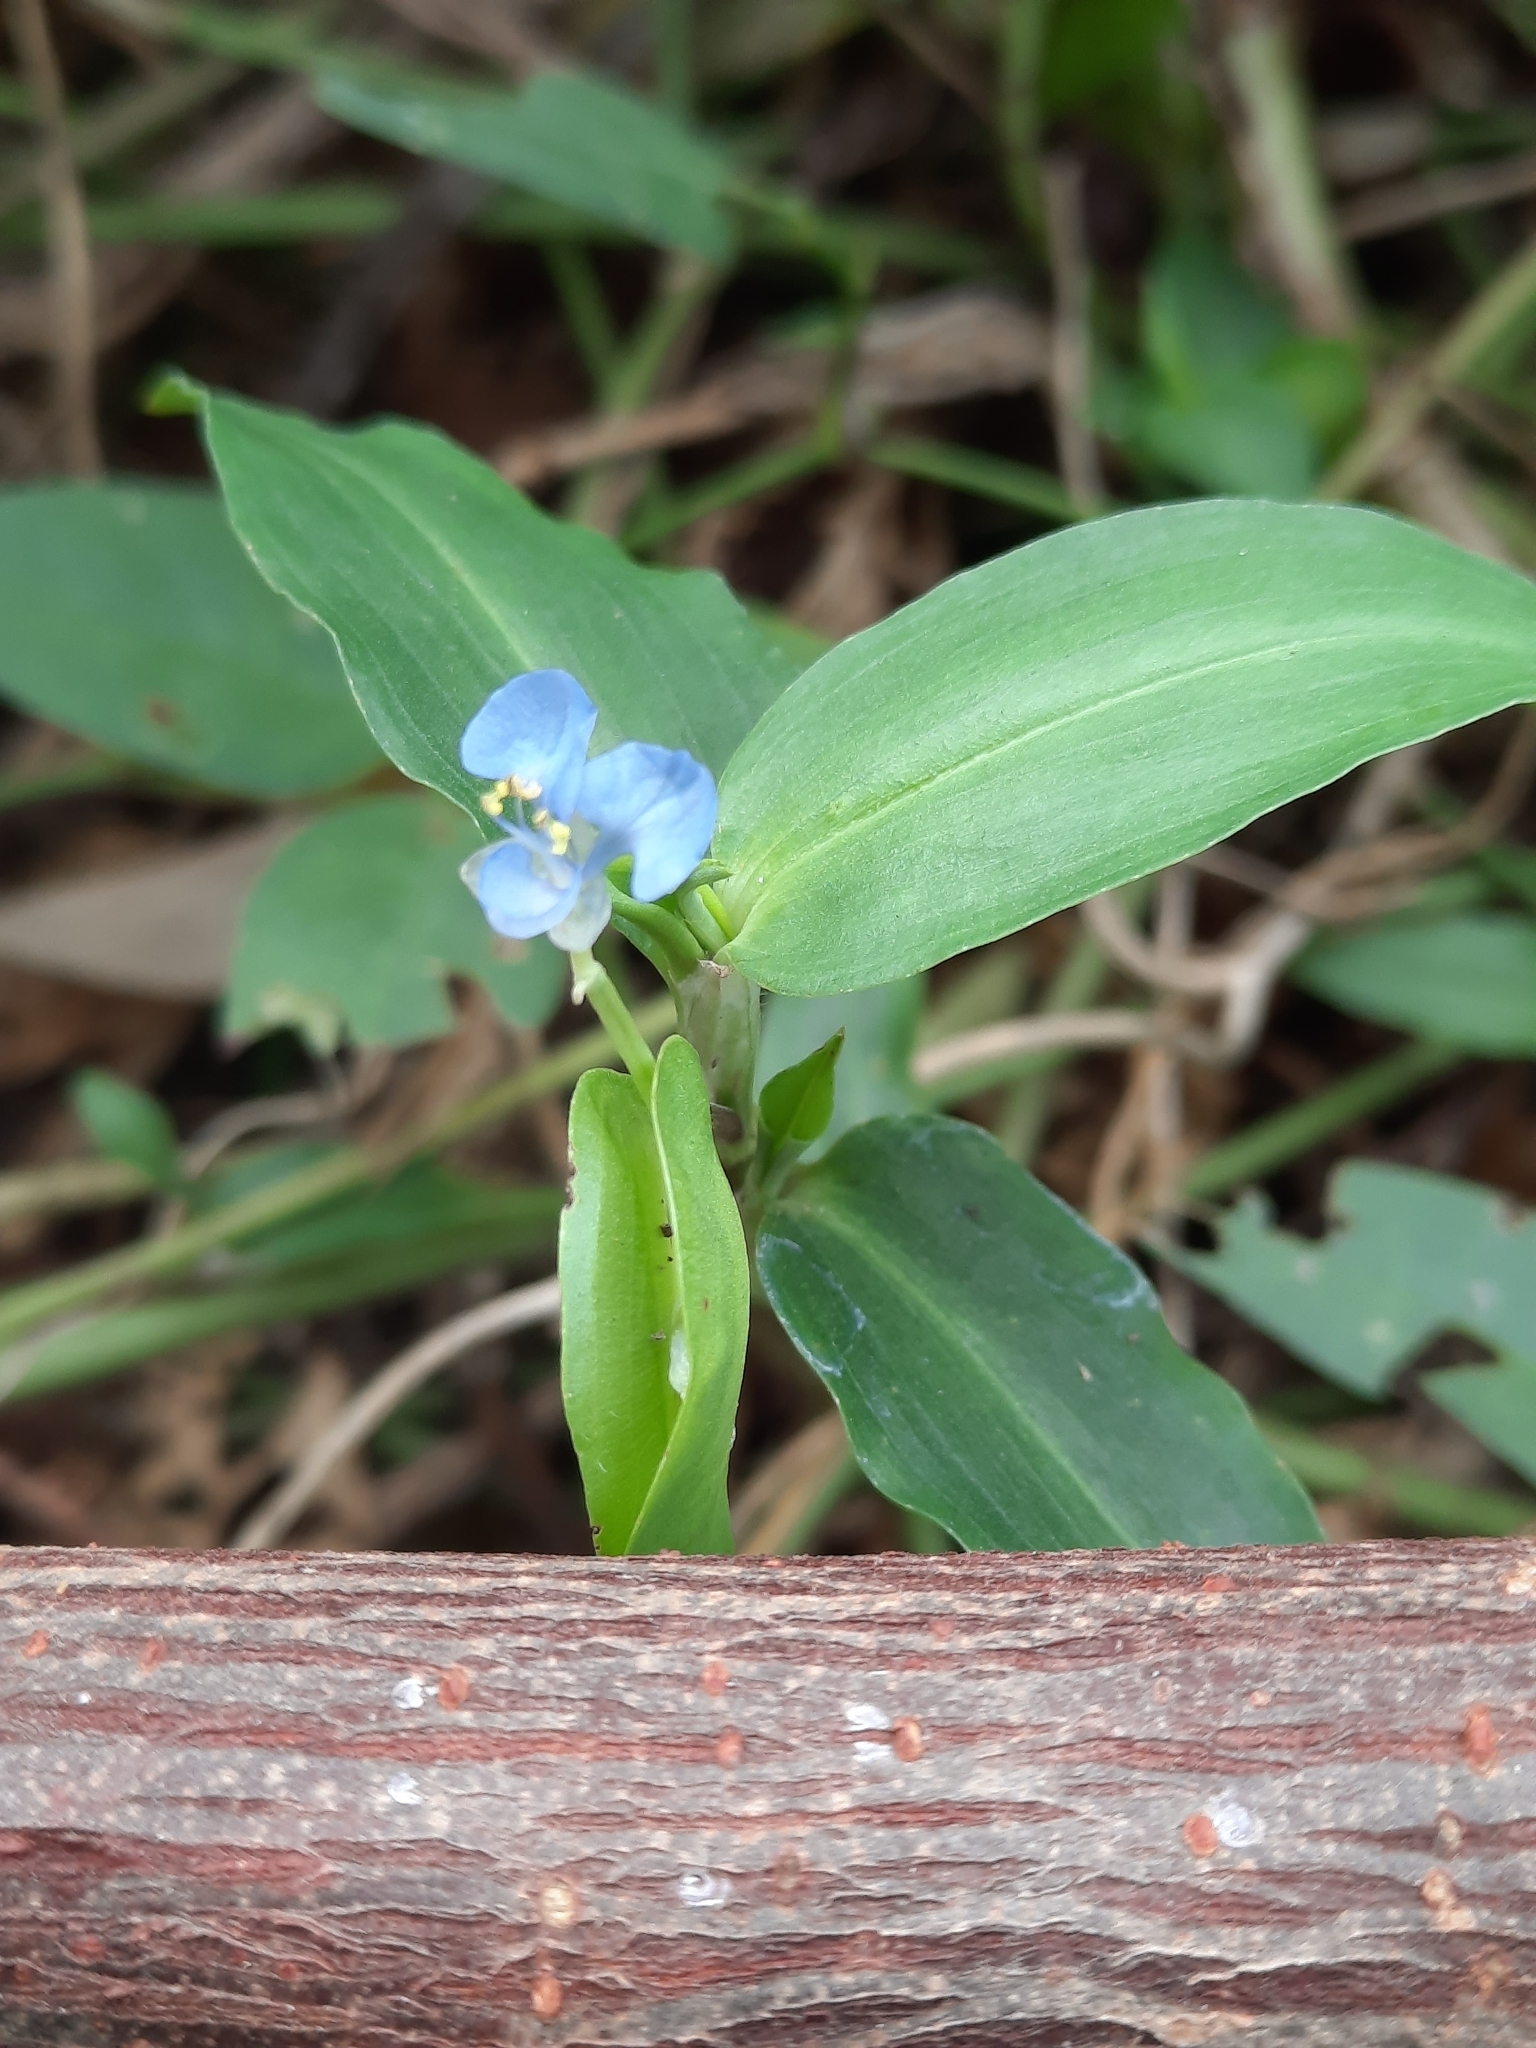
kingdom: Plantae
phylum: Tracheophyta
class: Liliopsida
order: Commelinales
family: Commelinaceae
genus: Commelina
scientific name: Commelina diffusa
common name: Climbing dayflower
